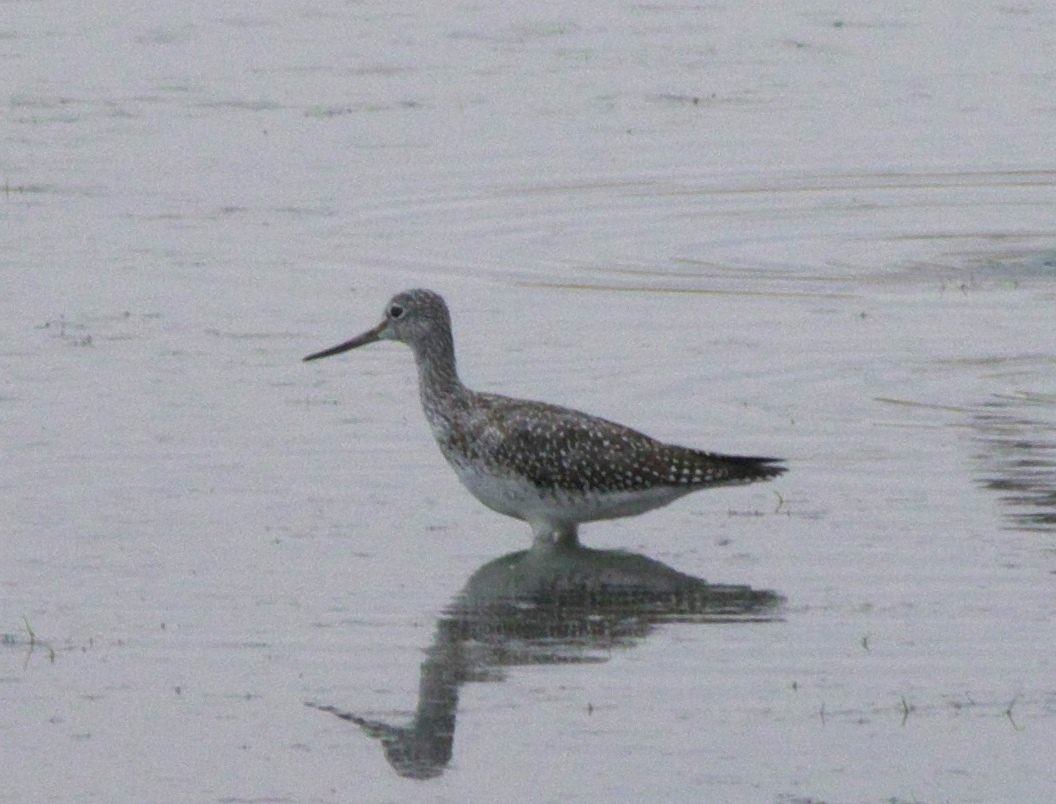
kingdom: Animalia
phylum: Chordata
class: Aves
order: Charadriiformes
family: Scolopacidae
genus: Tringa
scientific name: Tringa melanoleuca
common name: Greater yellowlegs
